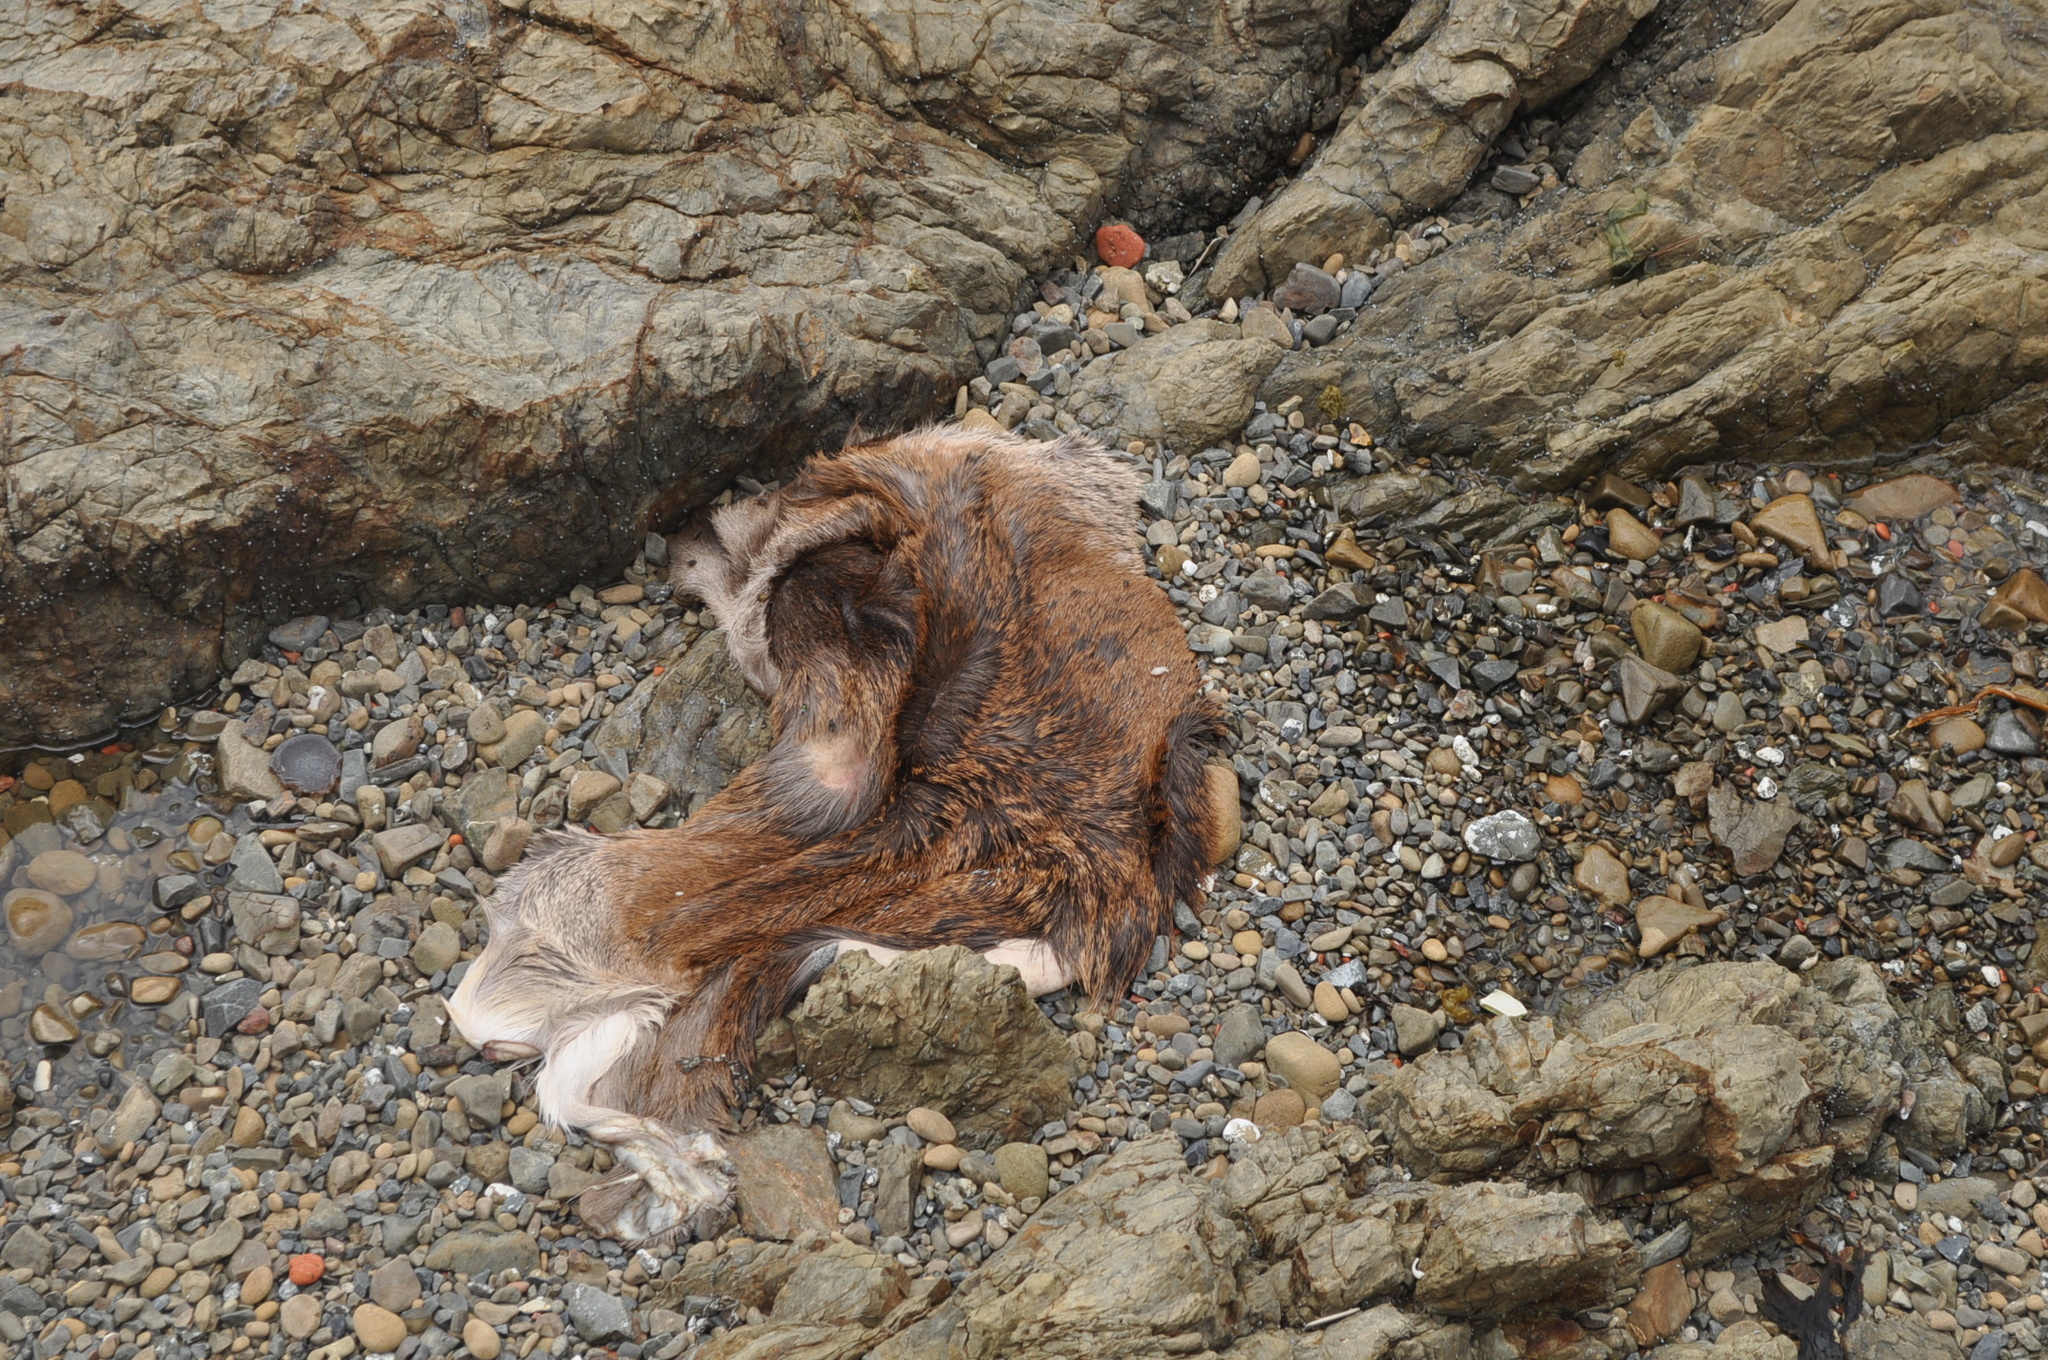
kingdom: Animalia
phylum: Chordata
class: Mammalia
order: Artiodactyla
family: Cervidae
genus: Cervus
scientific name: Cervus elaphus
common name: Red deer
